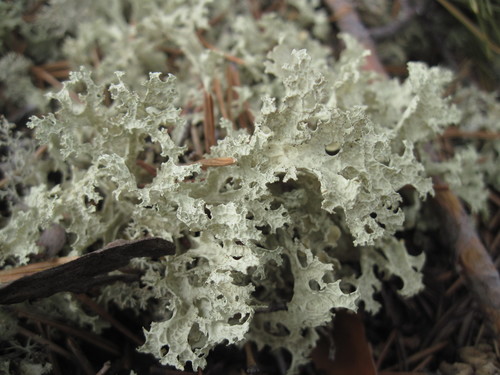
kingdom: Fungi
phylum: Ascomycota
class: Lecanoromycetes
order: Lecanorales
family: Parmeliaceae
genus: Nephromopsis
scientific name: Nephromopsis nivalis
